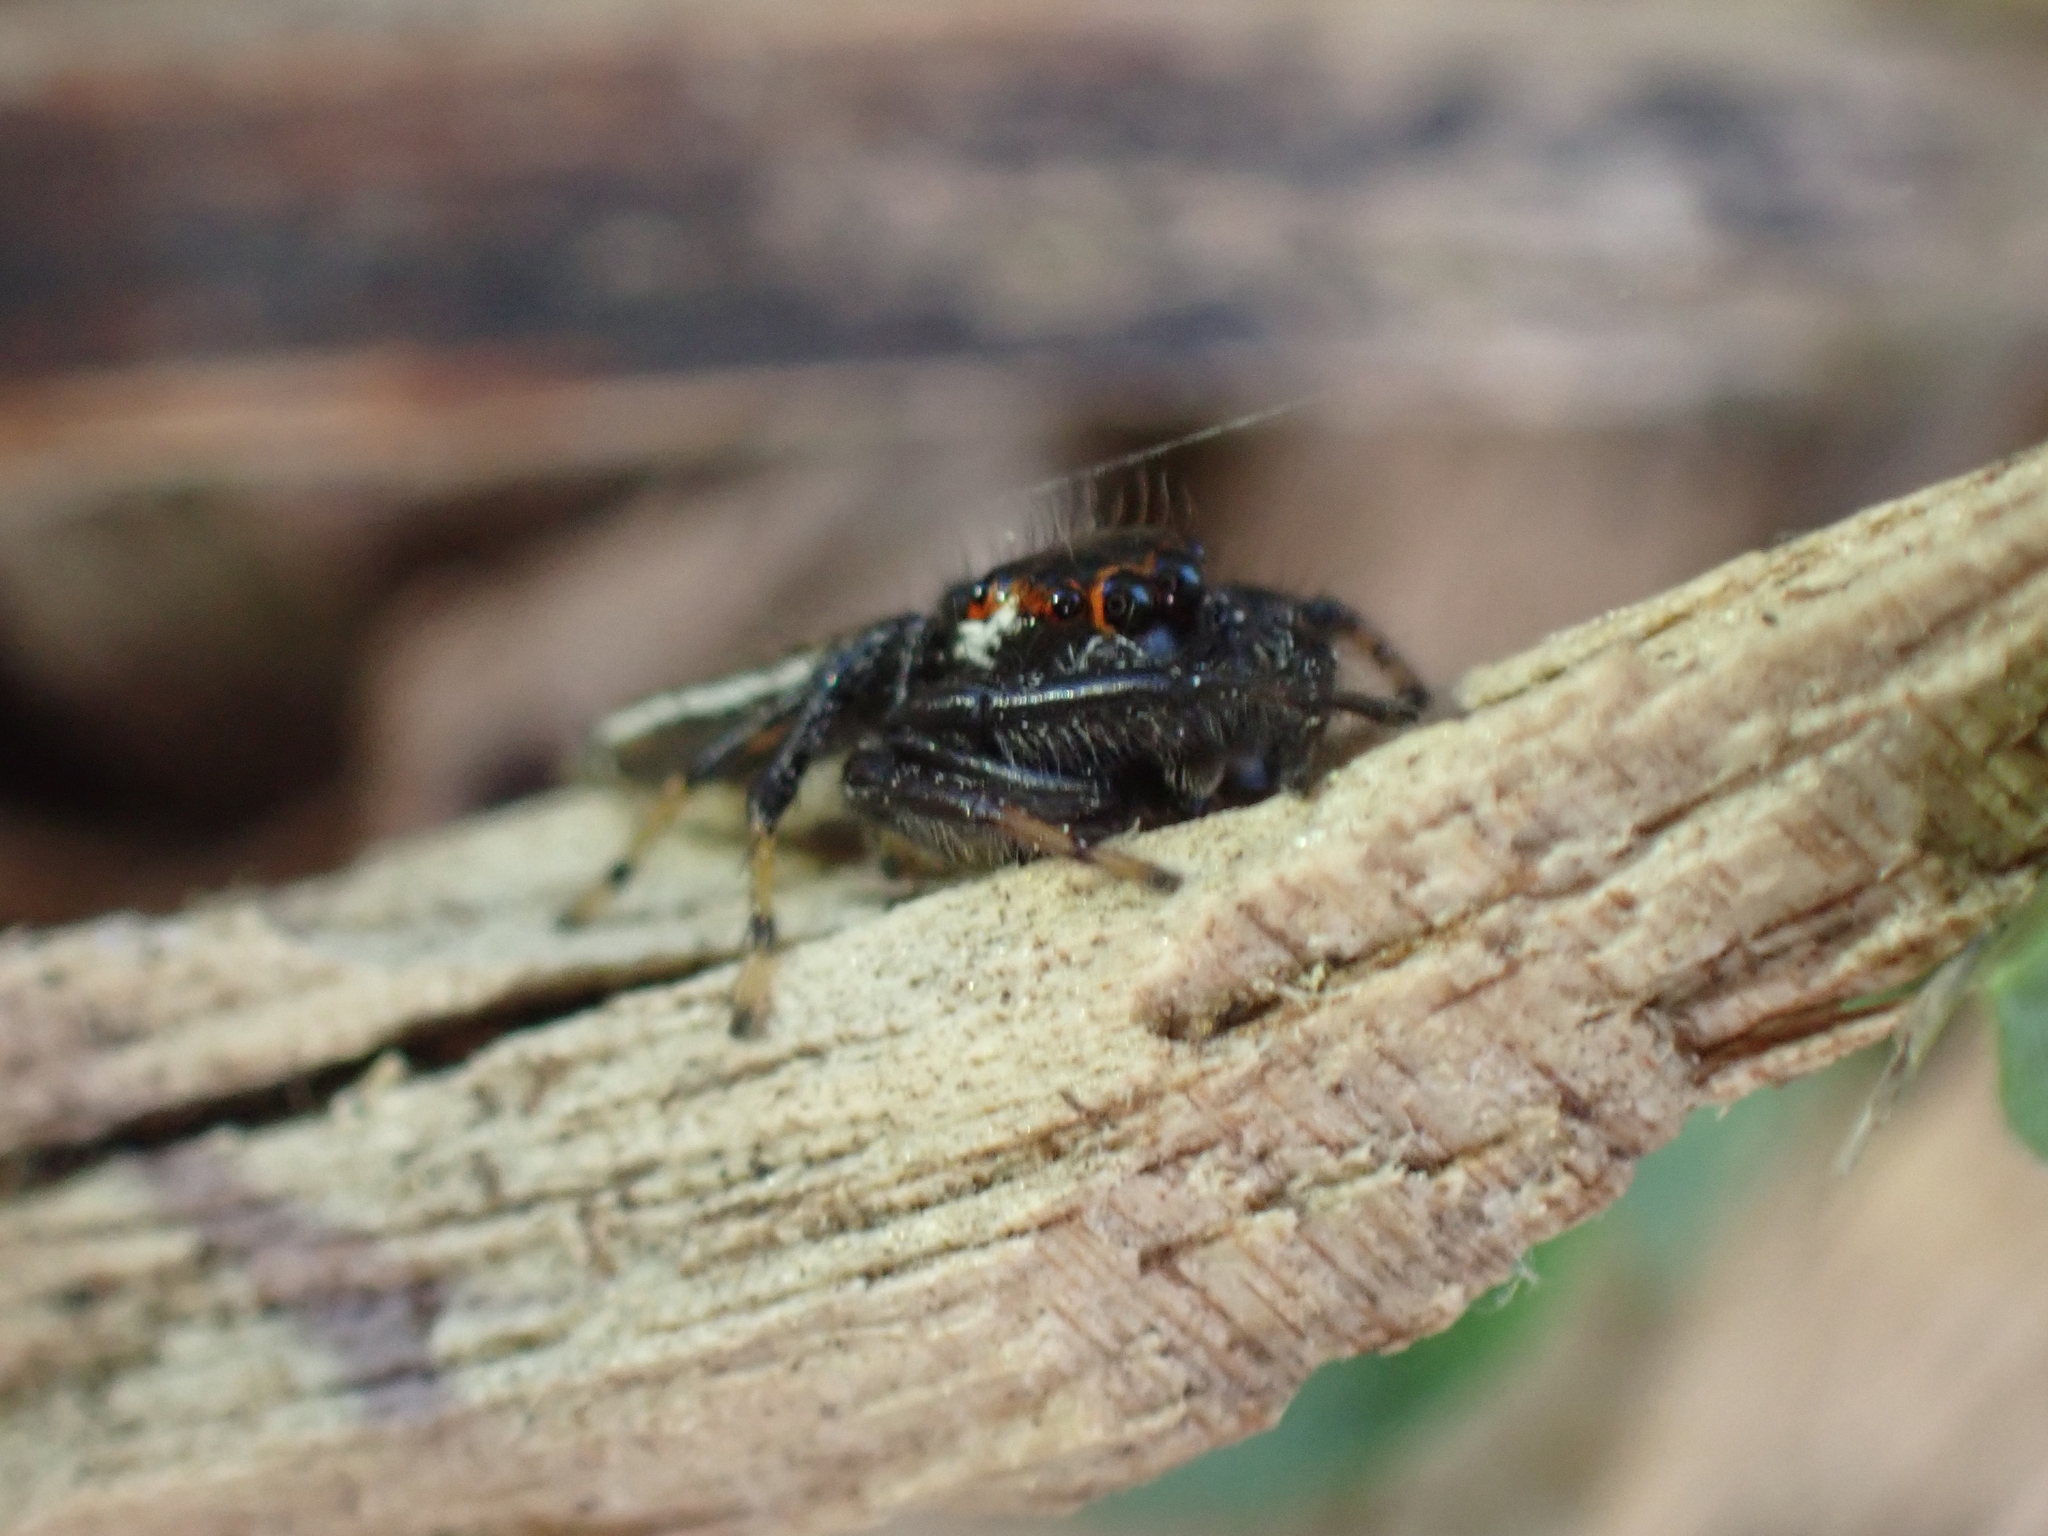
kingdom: Animalia
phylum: Arthropoda
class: Arachnida
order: Araneae
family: Salticidae
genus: Colonus
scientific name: Colonus sylvanus
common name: Jumping spiders
